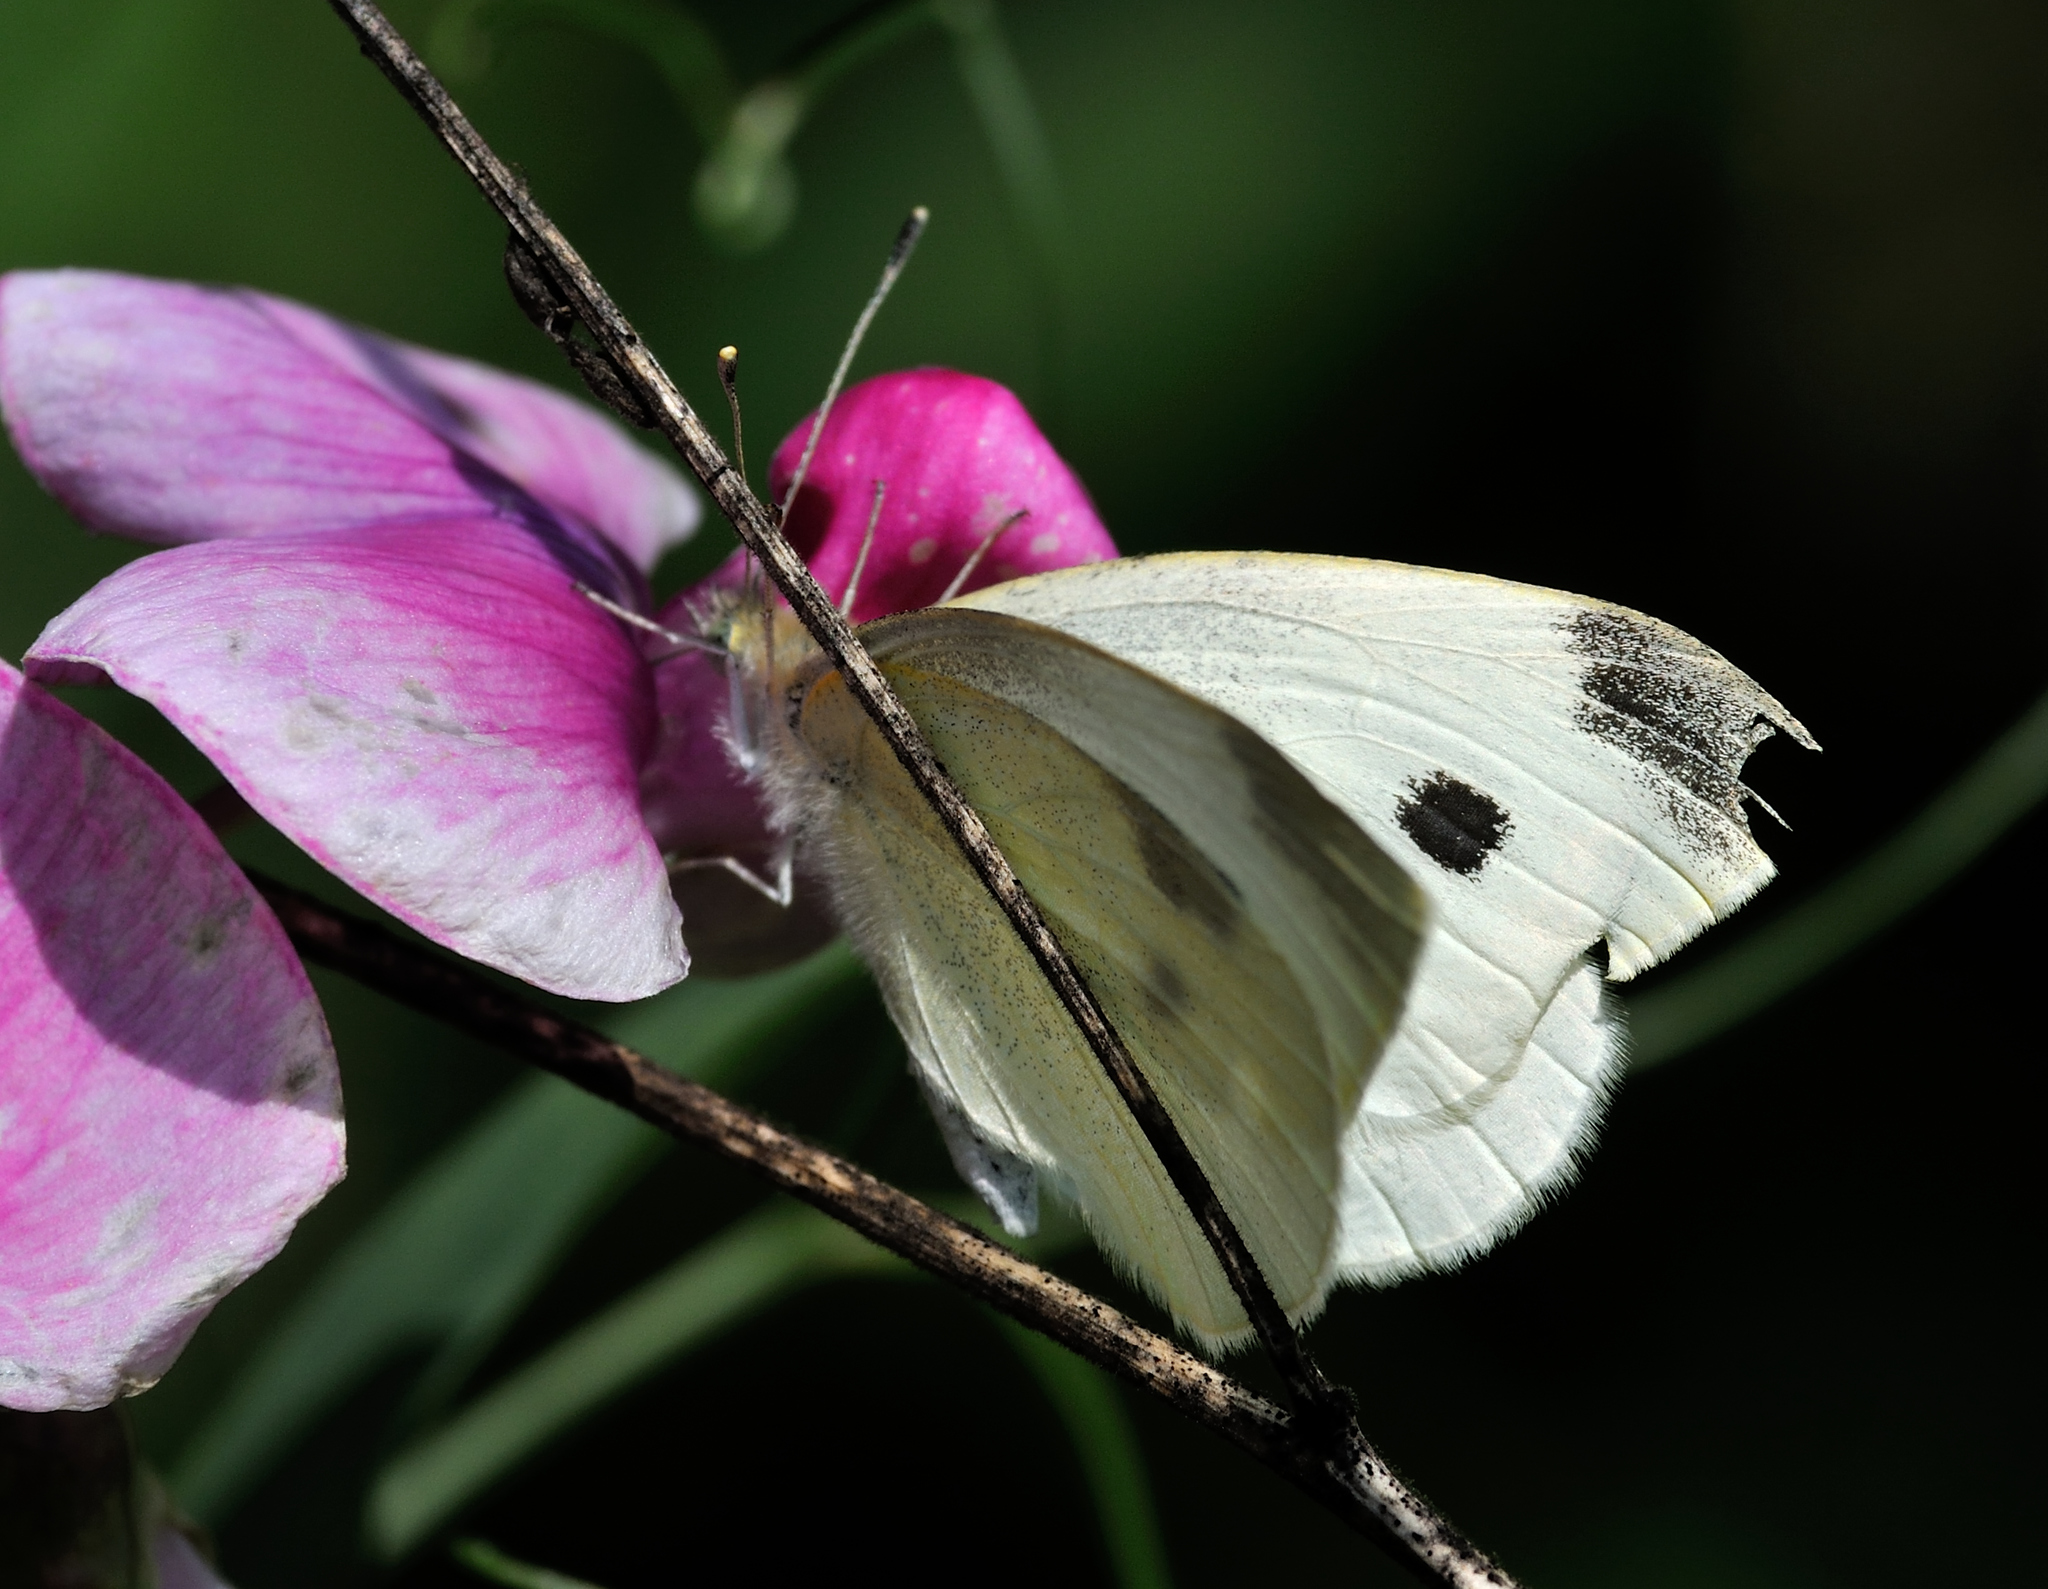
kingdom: Animalia
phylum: Arthropoda
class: Insecta
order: Lepidoptera
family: Pieridae
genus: Pieris
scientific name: Pieris rapae
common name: Small white
